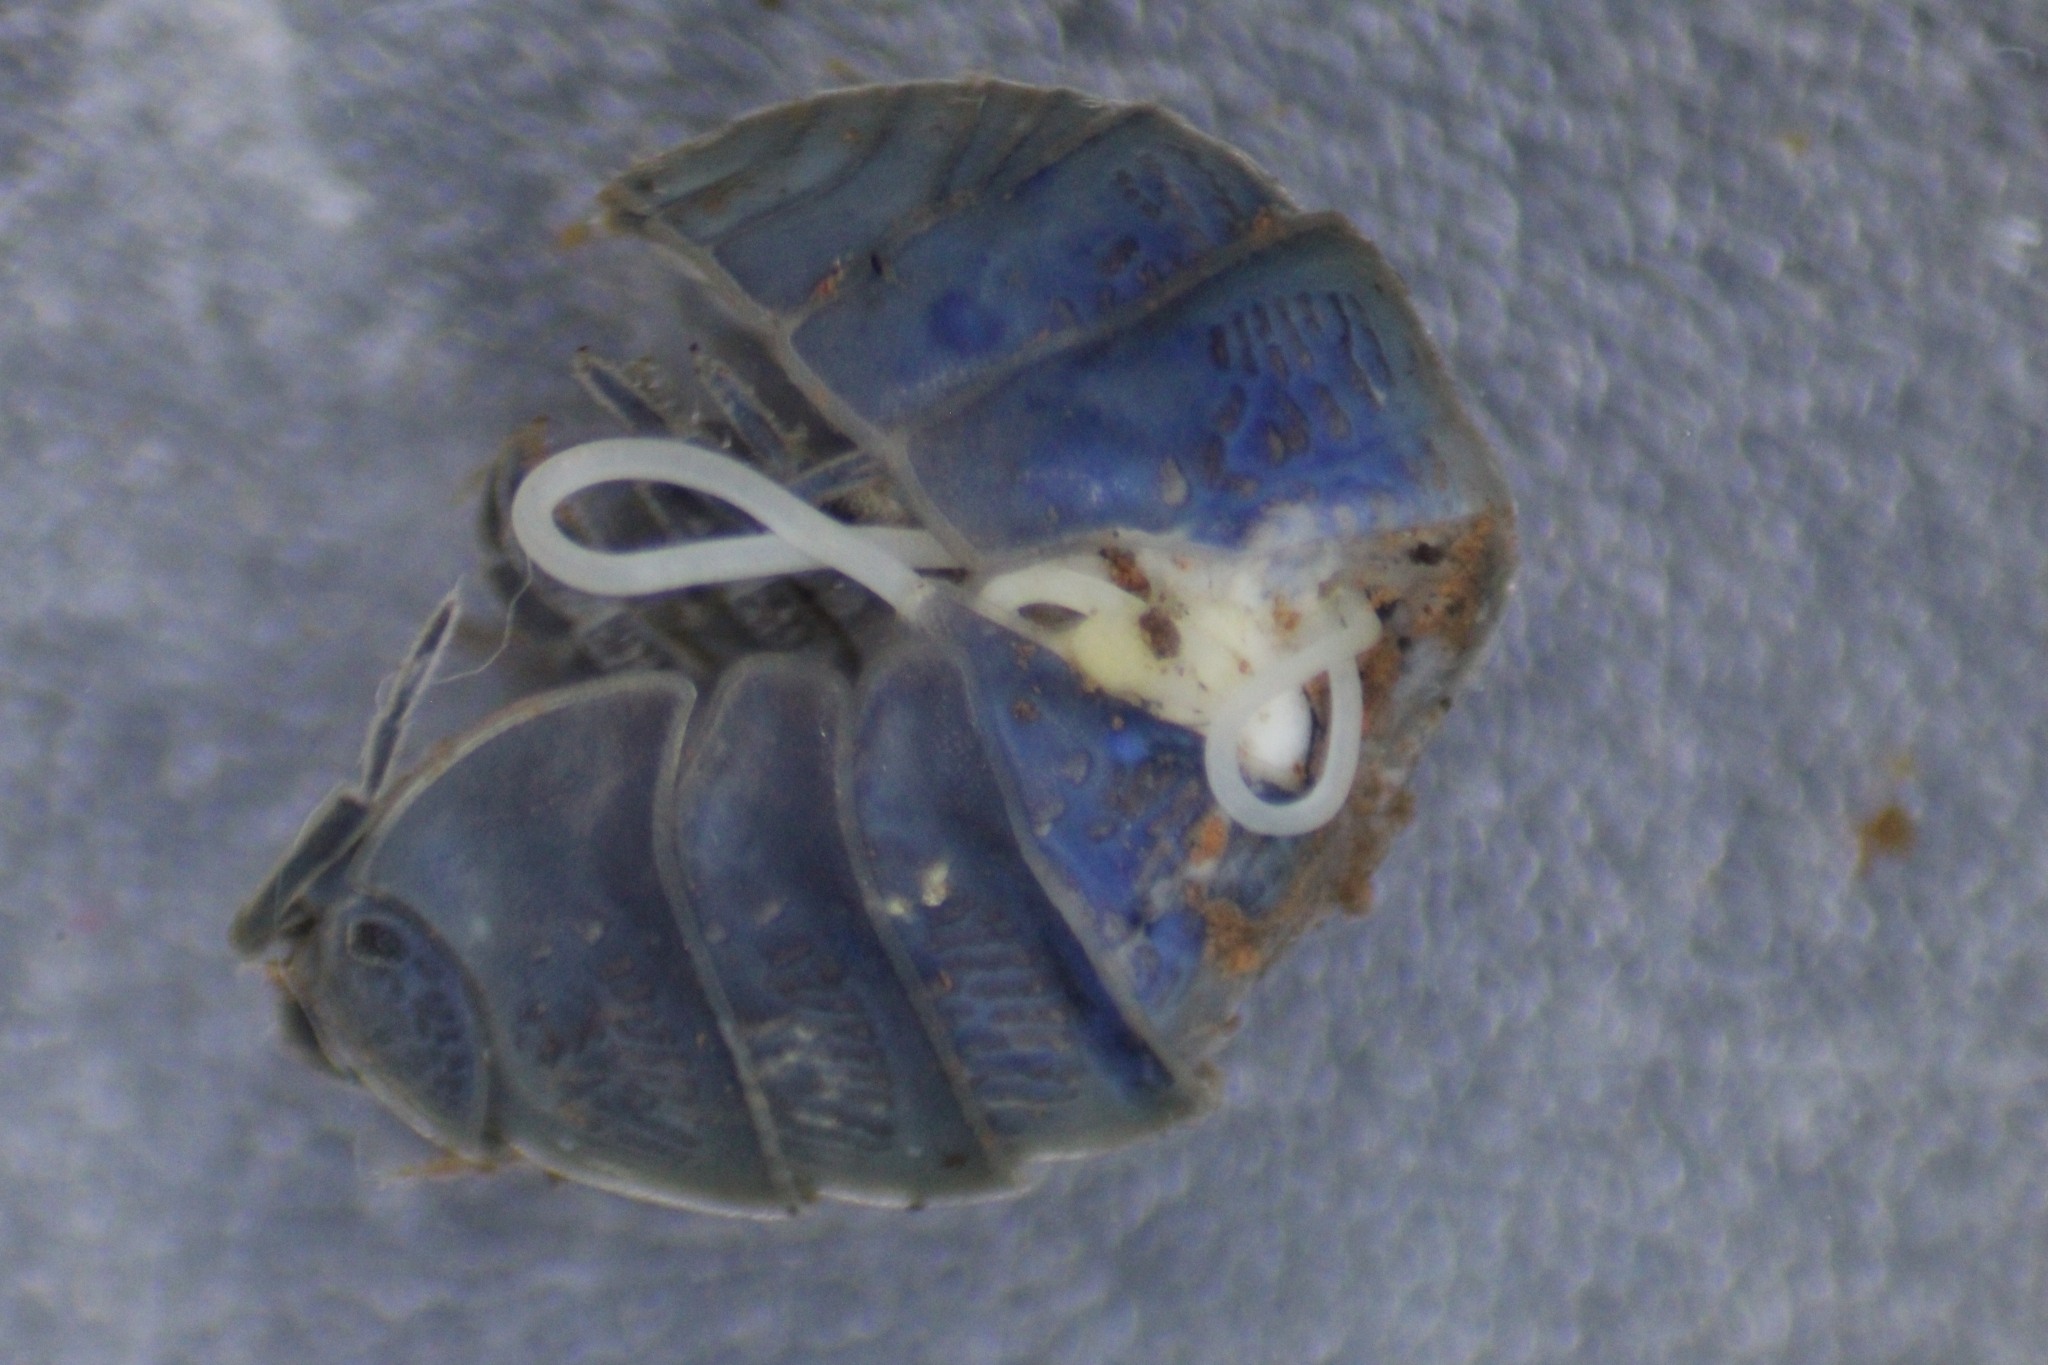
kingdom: Viruses
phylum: Nucleocytoviricota
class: Megaviricetes
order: Pimascovirales
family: Iridoviridae
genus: Iridovirus
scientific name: Iridovirus Invertebrate iridescent virus 31
